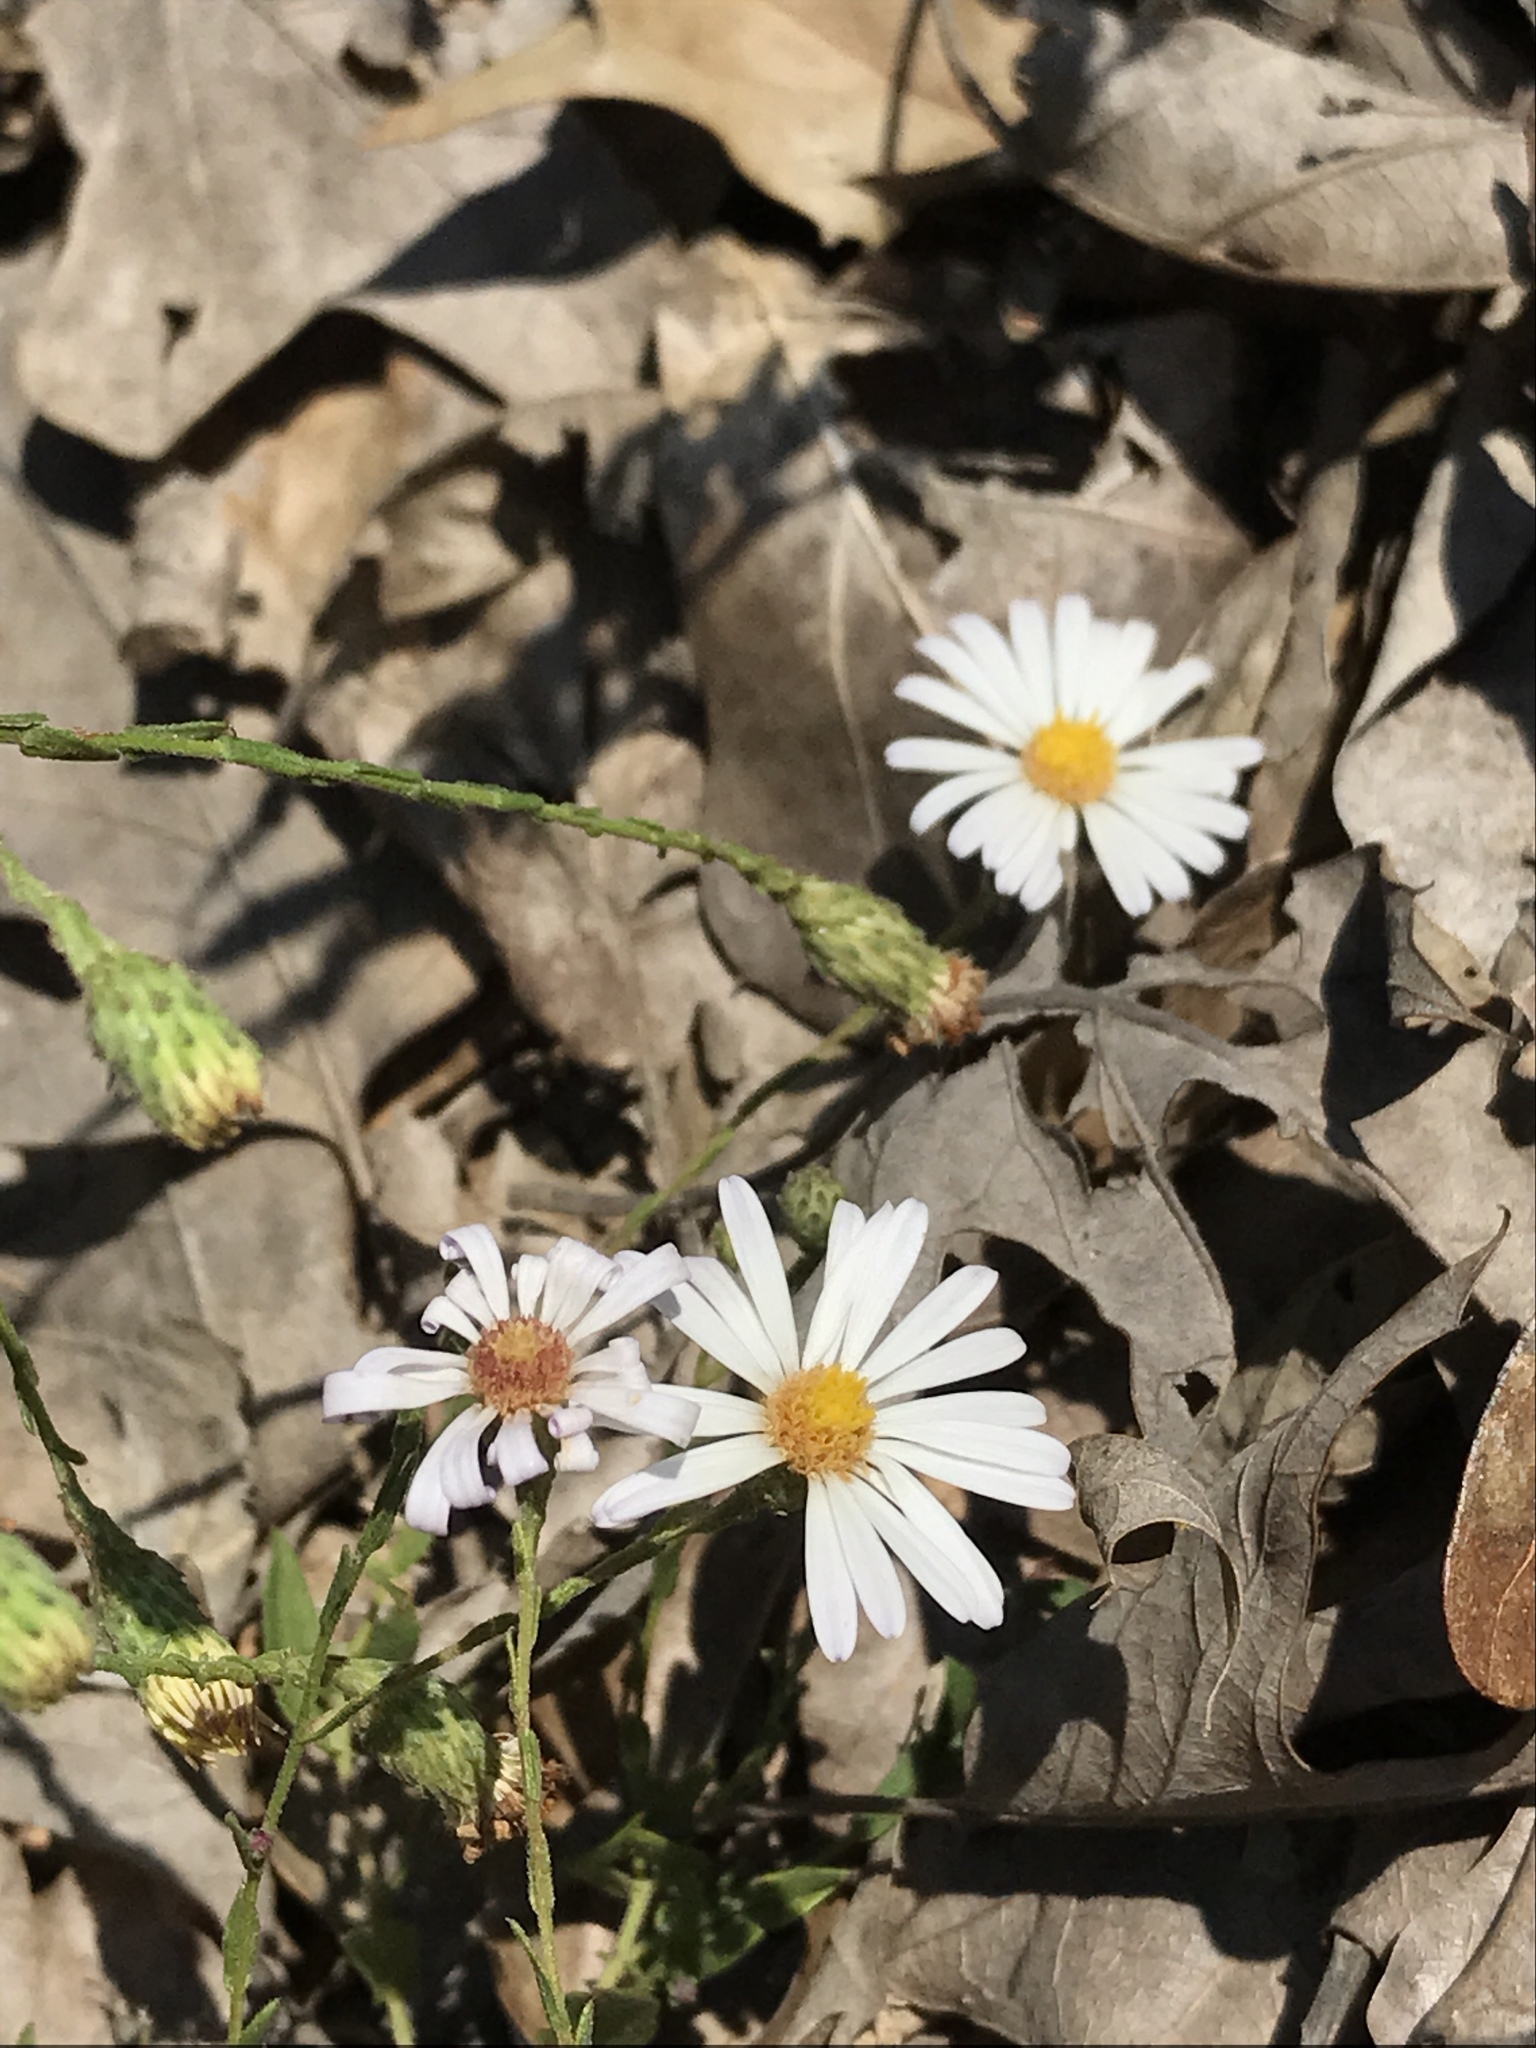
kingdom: Plantae
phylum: Tracheophyta
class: Magnoliopsida
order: Asterales
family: Asteraceae
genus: Symphyotrichum
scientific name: Symphyotrichum patens
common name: Late purple aster
